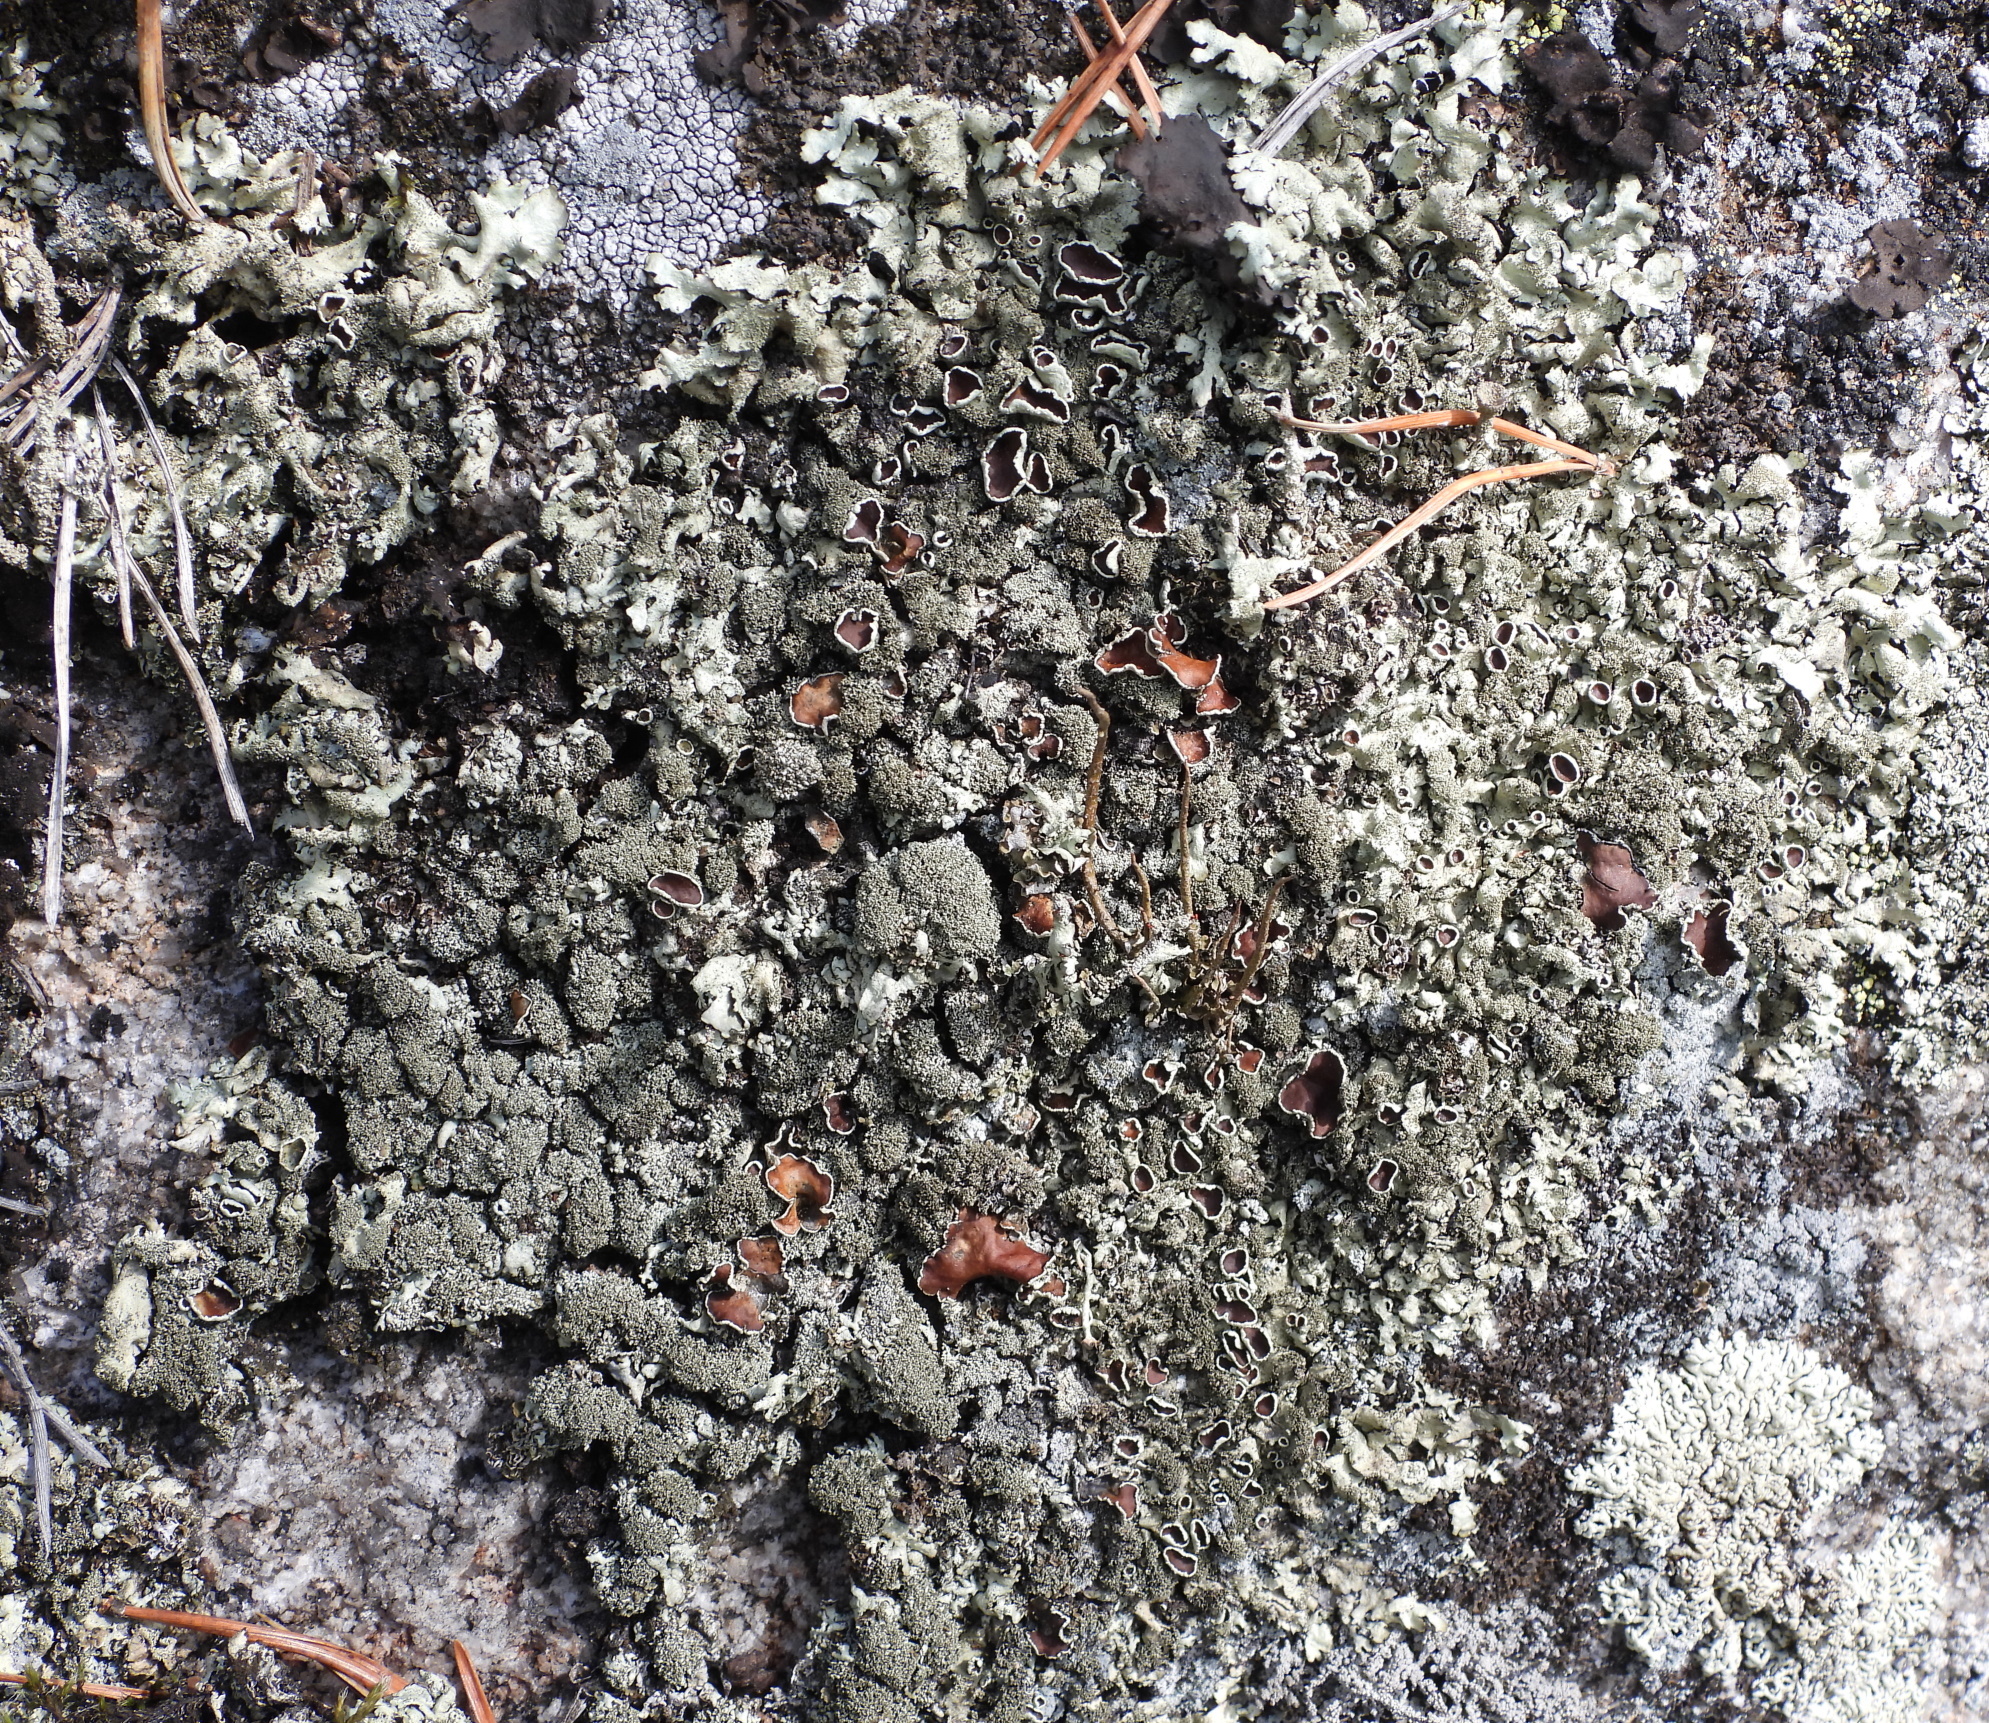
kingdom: Fungi
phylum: Ascomycota
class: Lecanoromycetes
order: Lecanorales
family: Parmeliaceae
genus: Xanthoparmelia
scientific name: Xanthoparmelia conspersa
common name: Peppered rock shield
